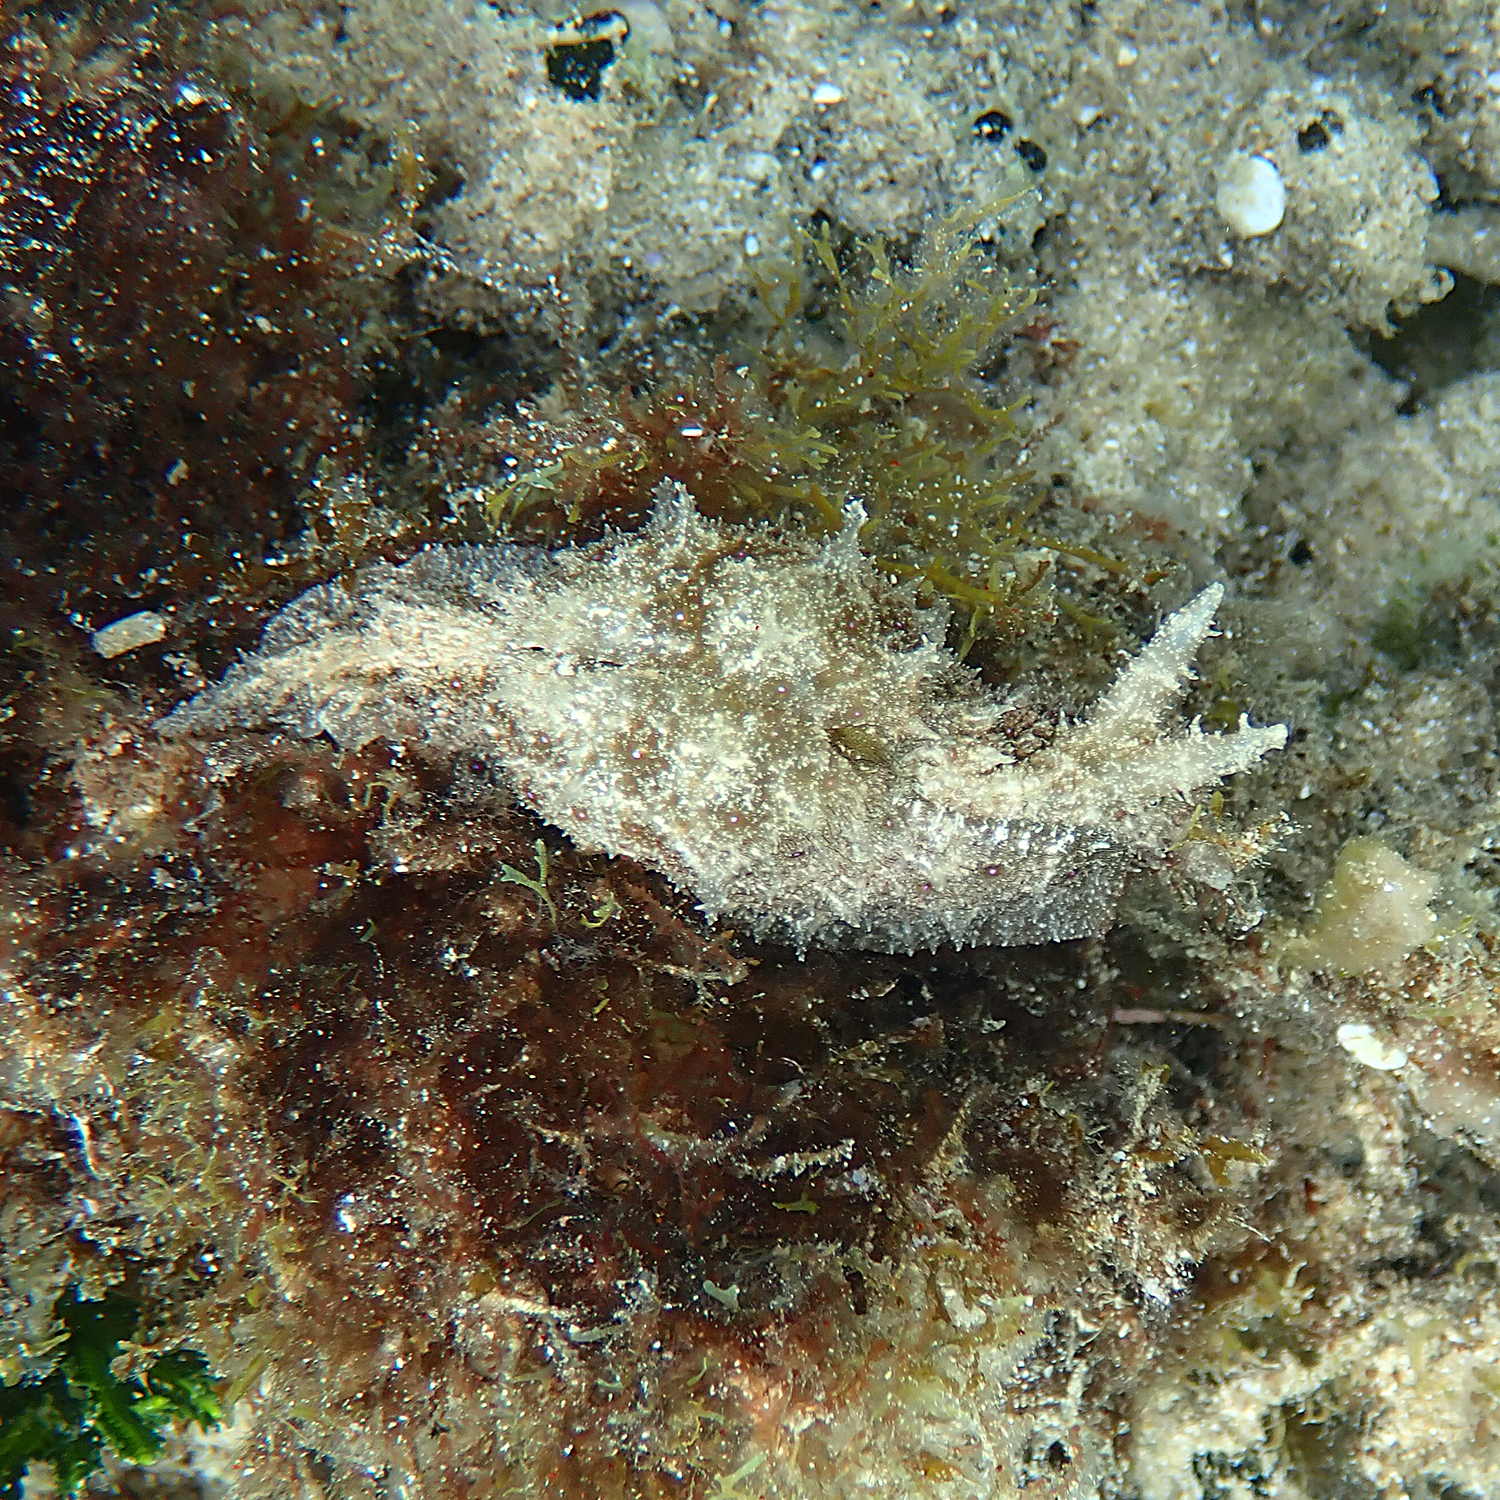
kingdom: Animalia
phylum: Mollusca
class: Gastropoda
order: Aplysiida
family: Aplysiidae
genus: Stylocheilus
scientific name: Stylocheilus striatus
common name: Striated seahare
